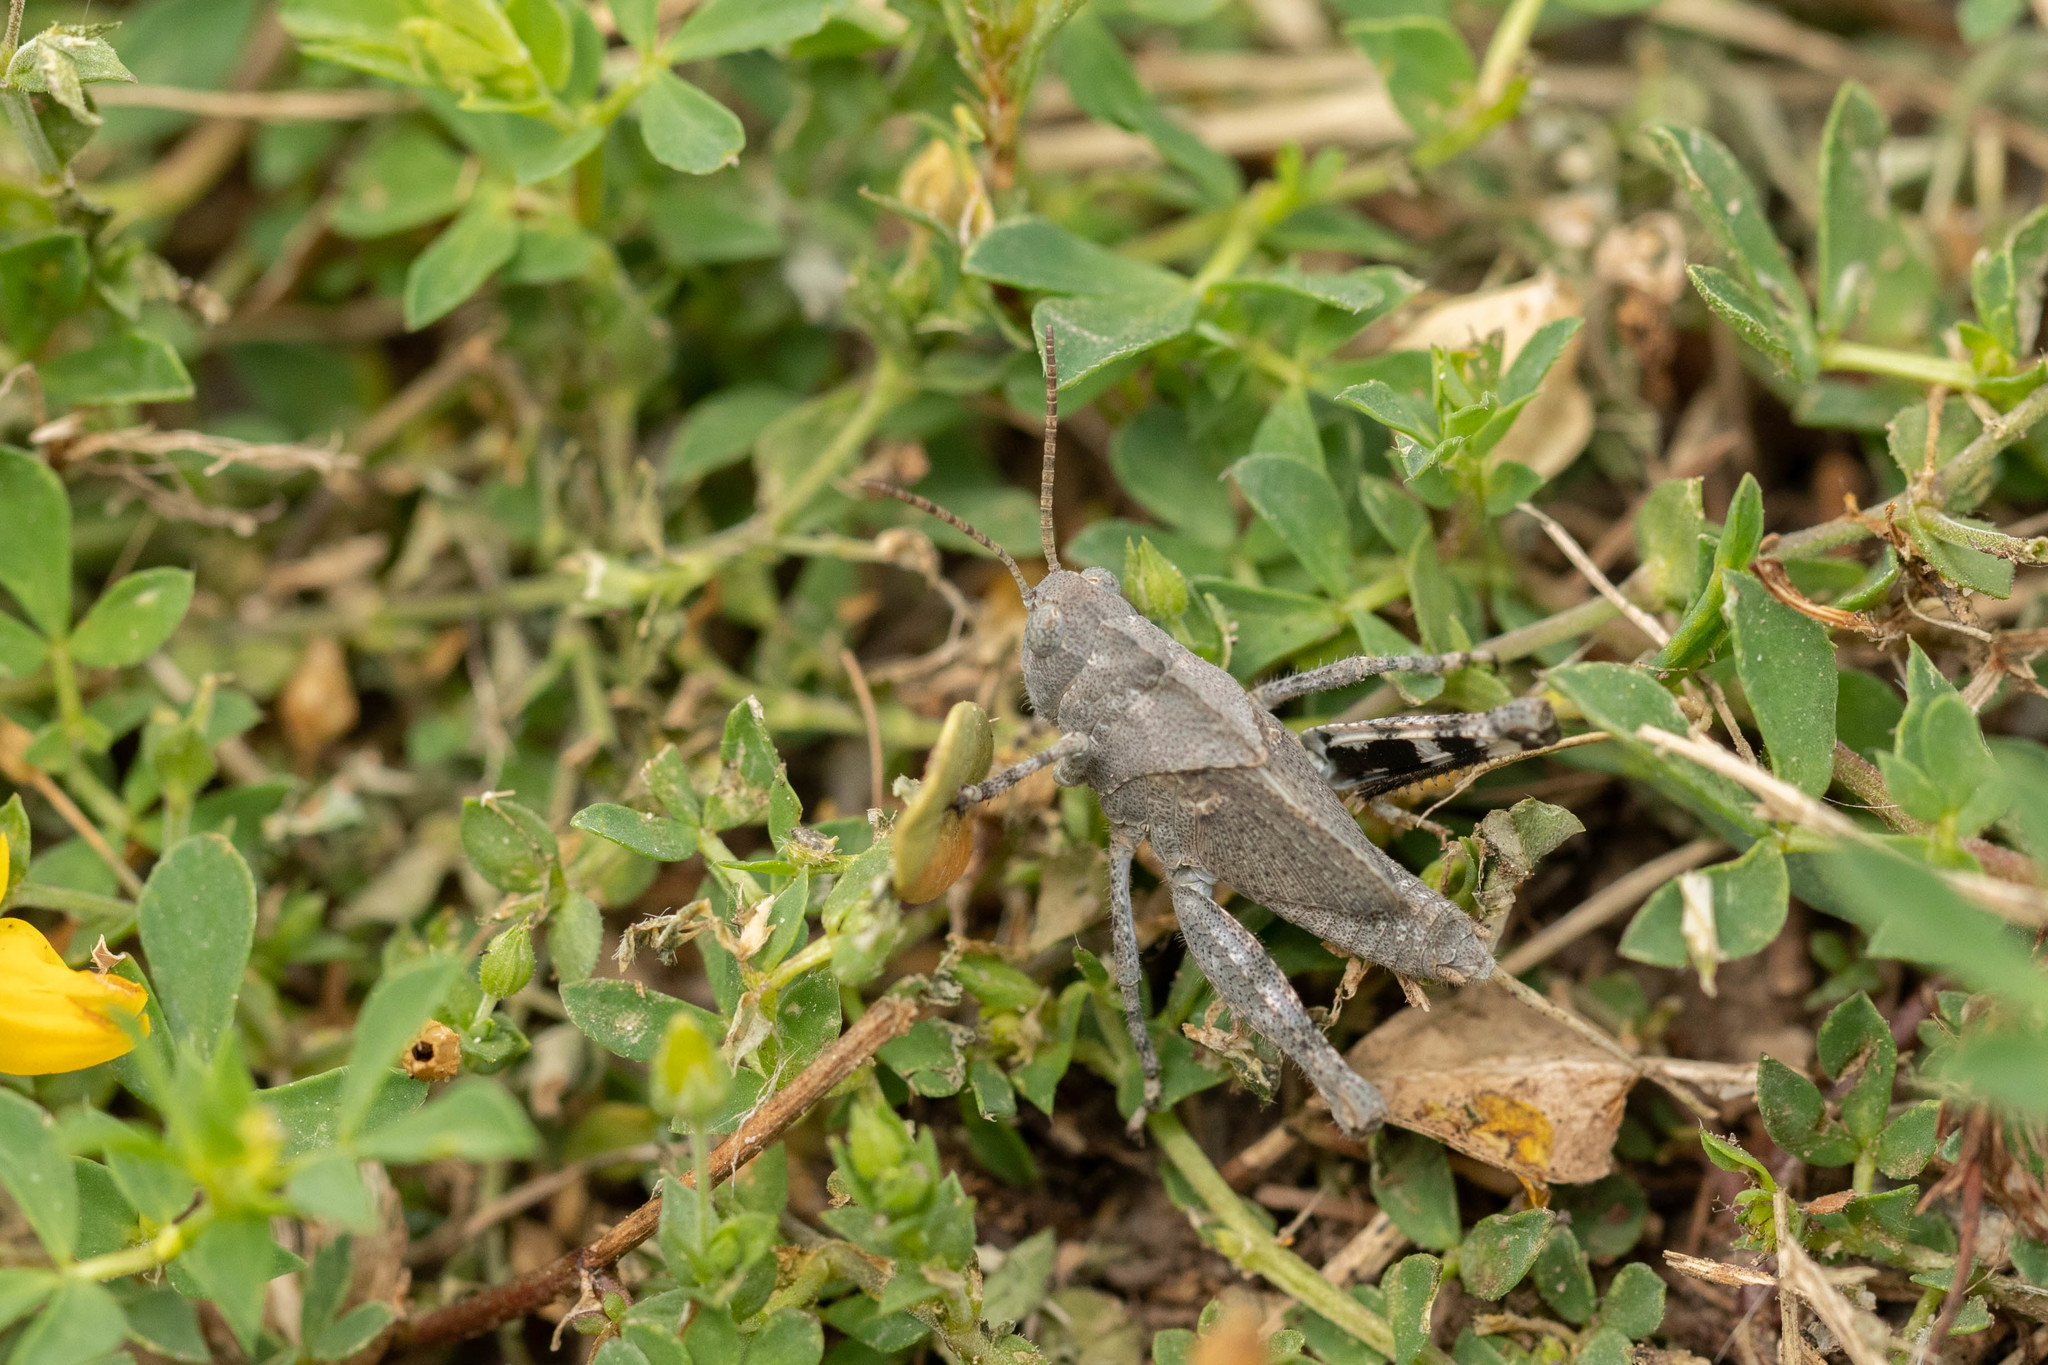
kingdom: Animalia
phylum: Arthropoda
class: Insecta
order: Orthoptera
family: Acrididae
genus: Dissosteira
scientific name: Dissosteira carolina
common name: Carolina grasshopper
